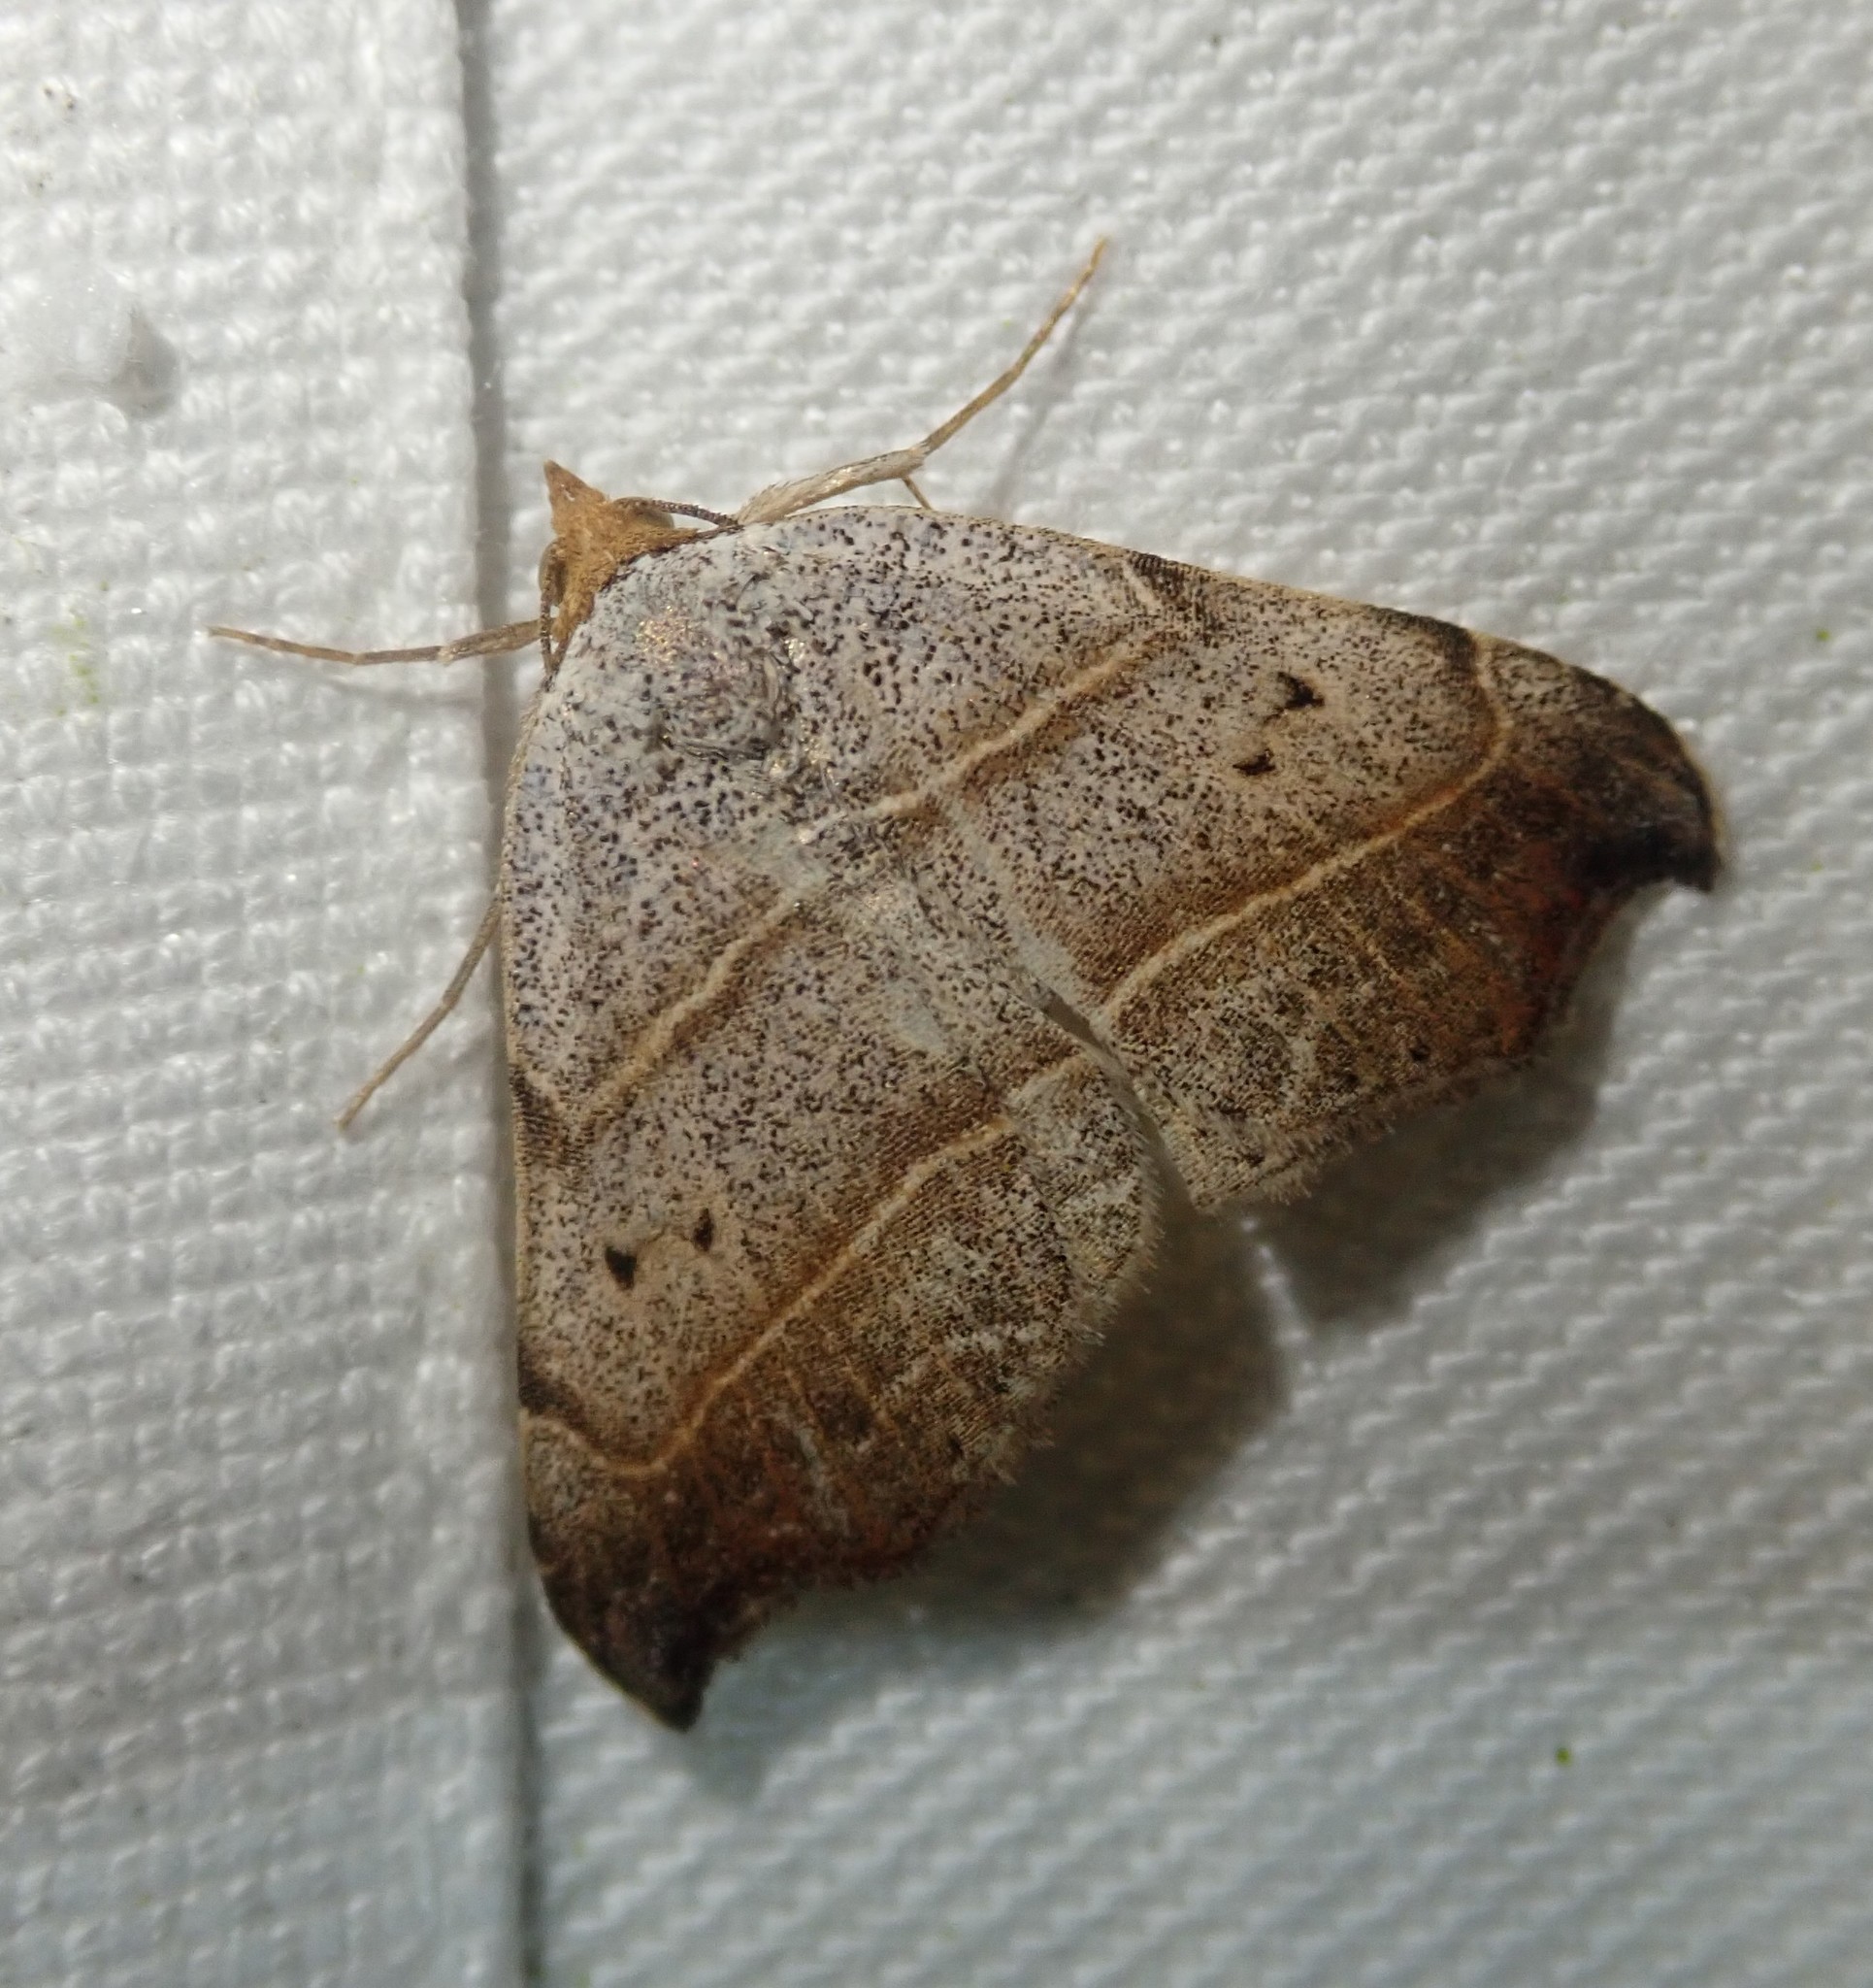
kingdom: Animalia
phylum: Arthropoda
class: Insecta
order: Lepidoptera
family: Erebidae
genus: Laspeyria
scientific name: Laspeyria flexula
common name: Beautiful hook-tip
